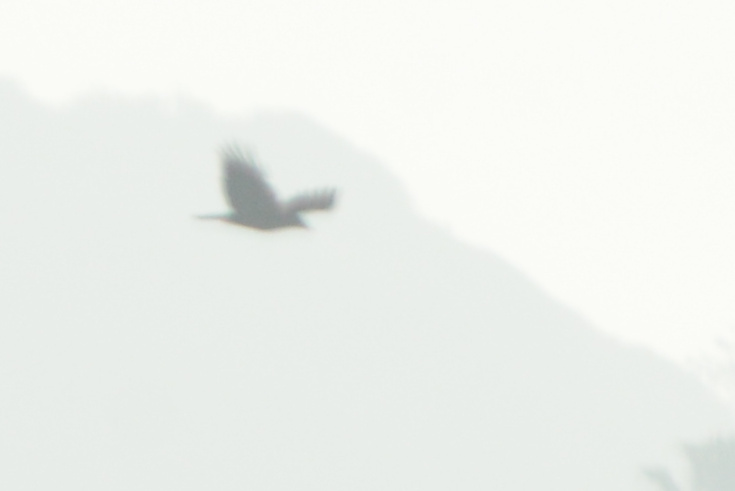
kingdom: Animalia
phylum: Chordata
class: Aves
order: Passeriformes
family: Corvidae
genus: Corvus
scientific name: Corvus brachyrhynchos
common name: American crow
